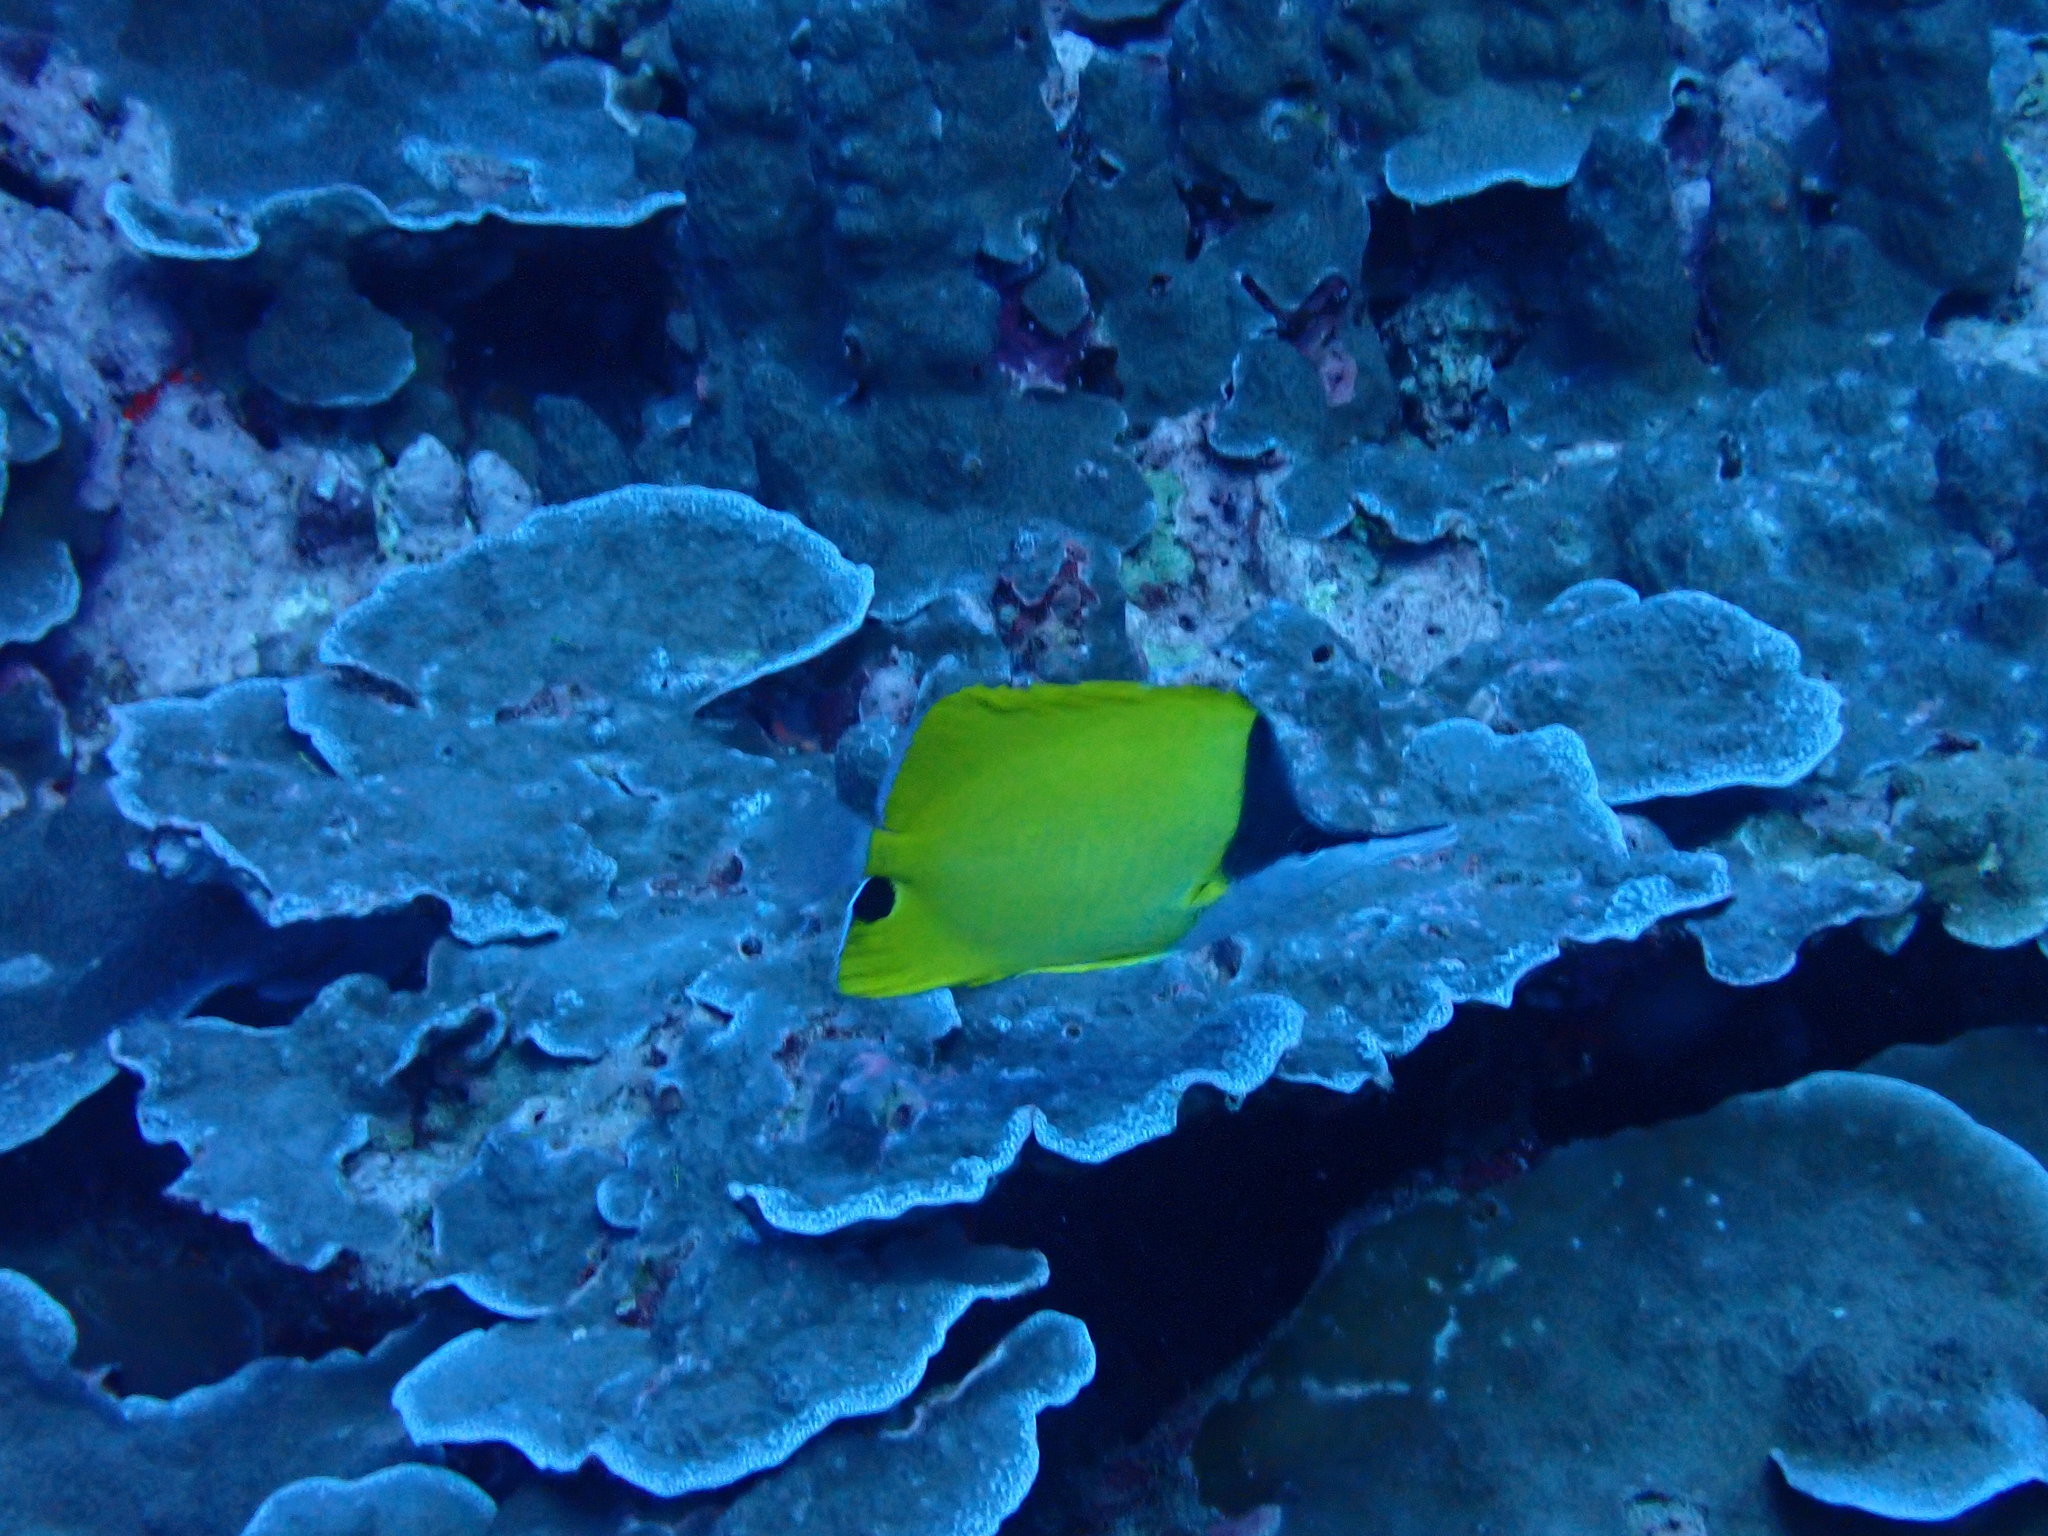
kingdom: Animalia
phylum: Chordata
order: Perciformes
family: Chaetodontidae
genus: Forcipiger
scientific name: Forcipiger flavissimus
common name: Forcepsfish
